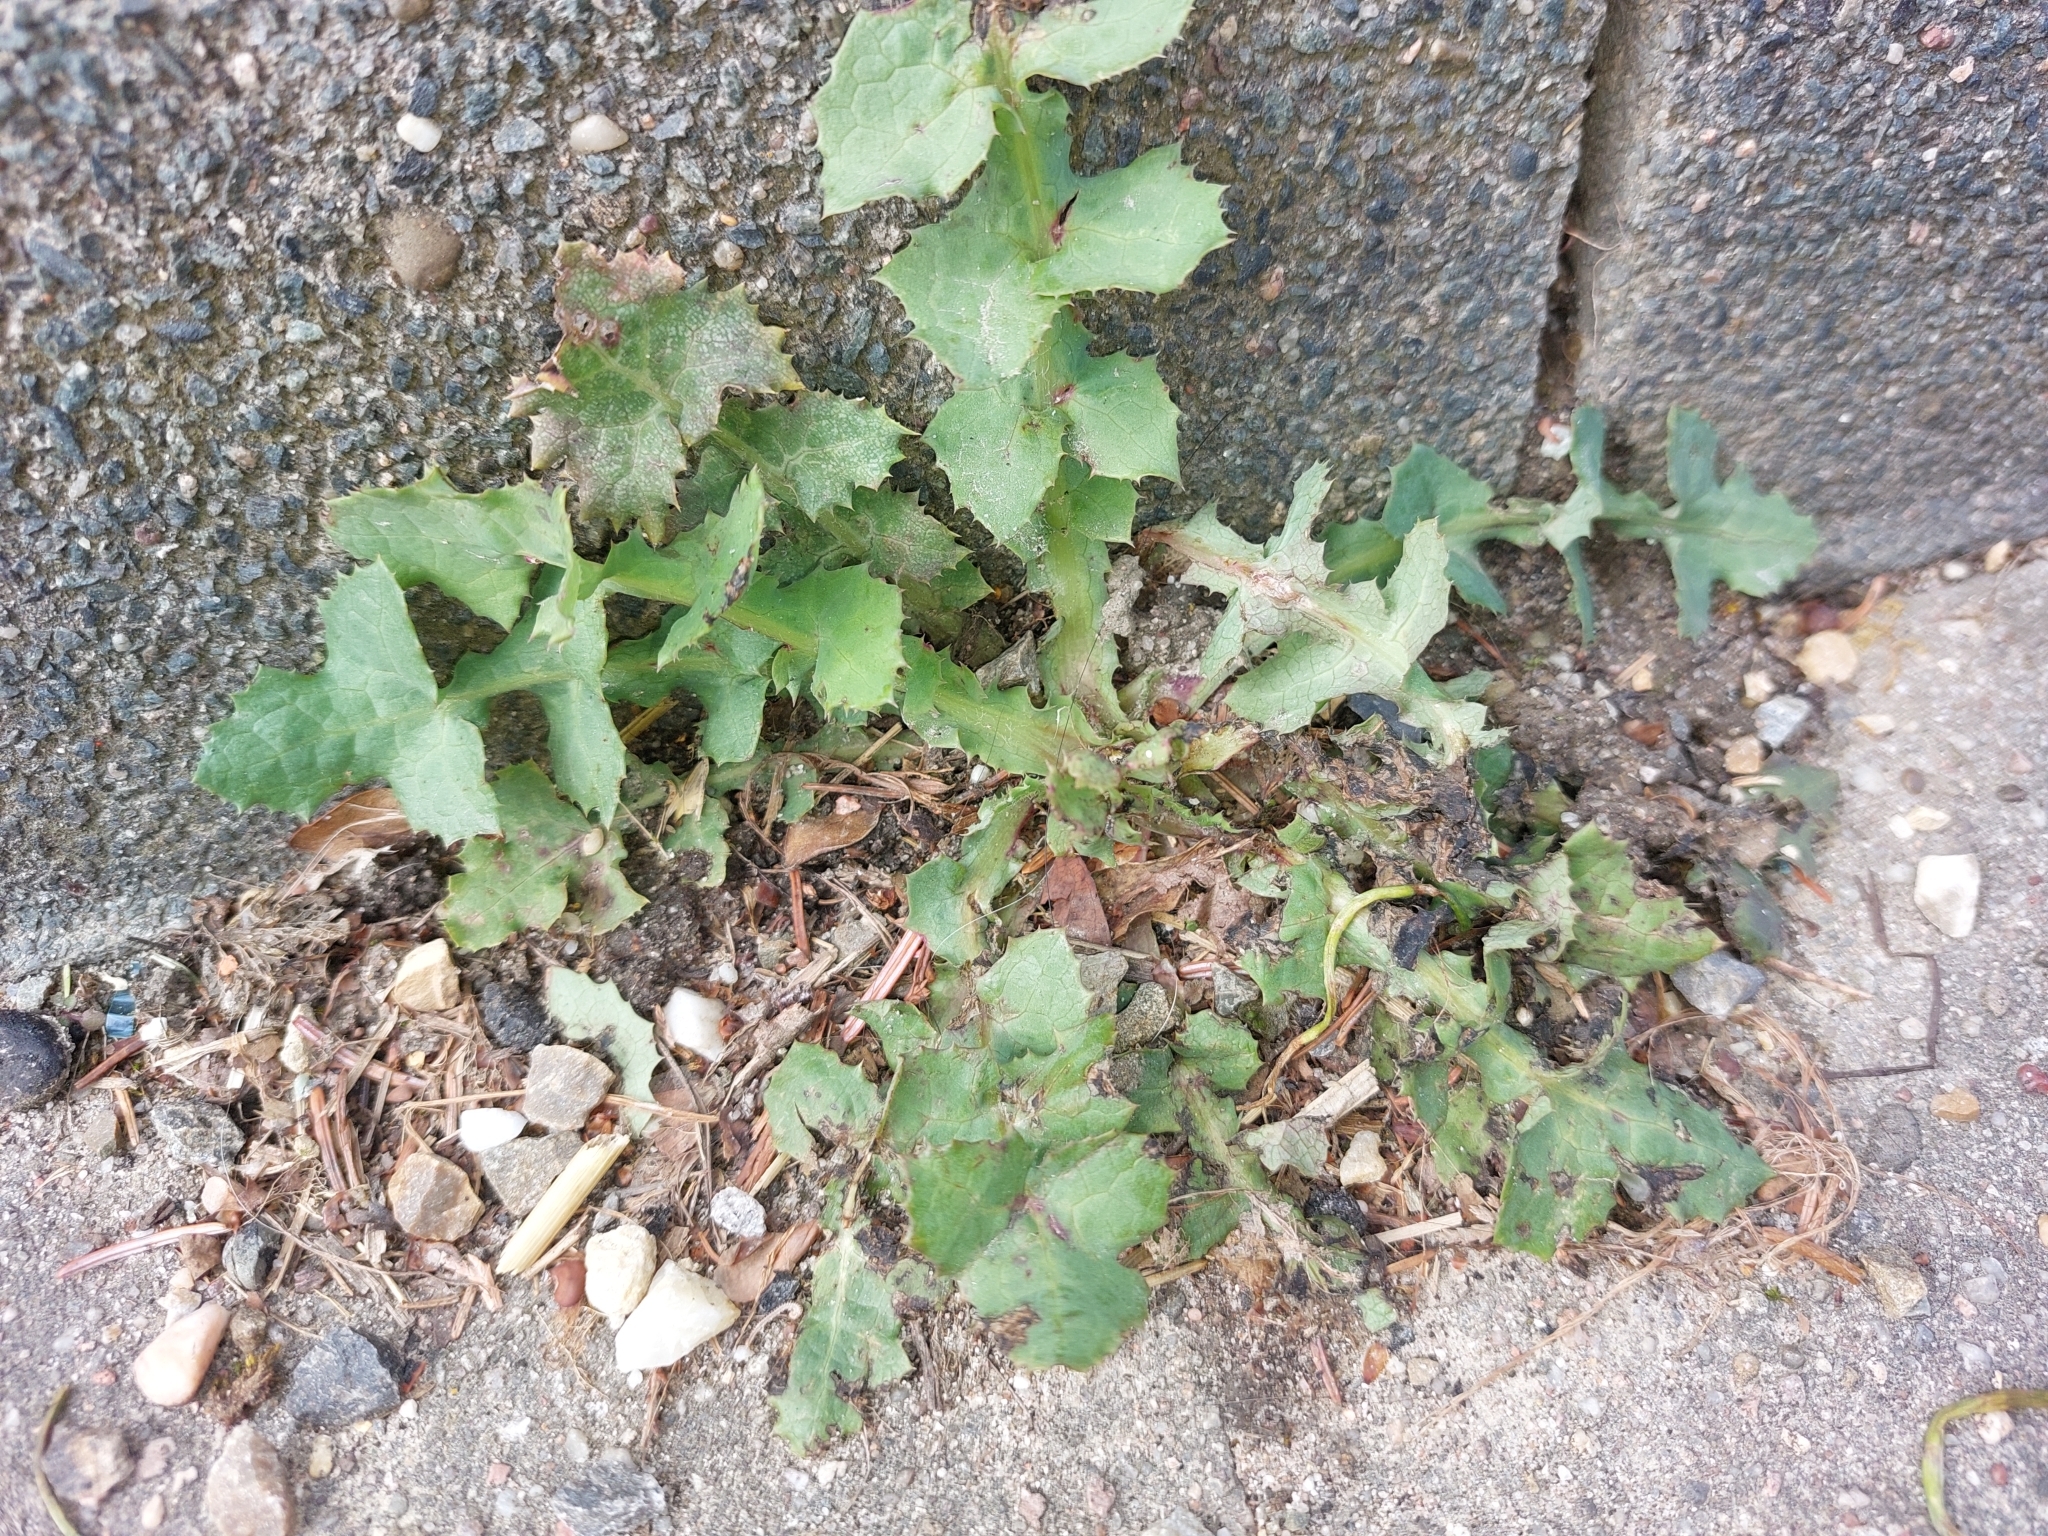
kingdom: Plantae
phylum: Tracheophyta
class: Magnoliopsida
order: Asterales
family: Asteraceae
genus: Sonchus
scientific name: Sonchus oleraceus
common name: Common sowthistle
